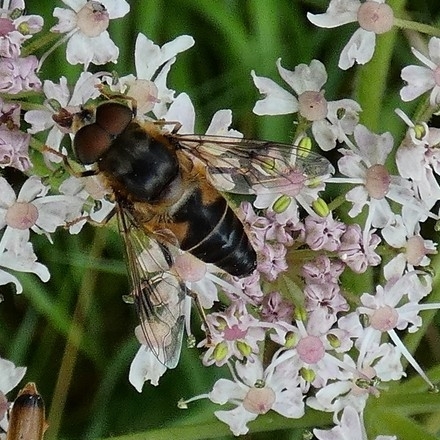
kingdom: Animalia
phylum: Arthropoda
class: Insecta
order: Diptera
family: Syrphidae
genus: Eristalis
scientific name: Eristalis pertinax
